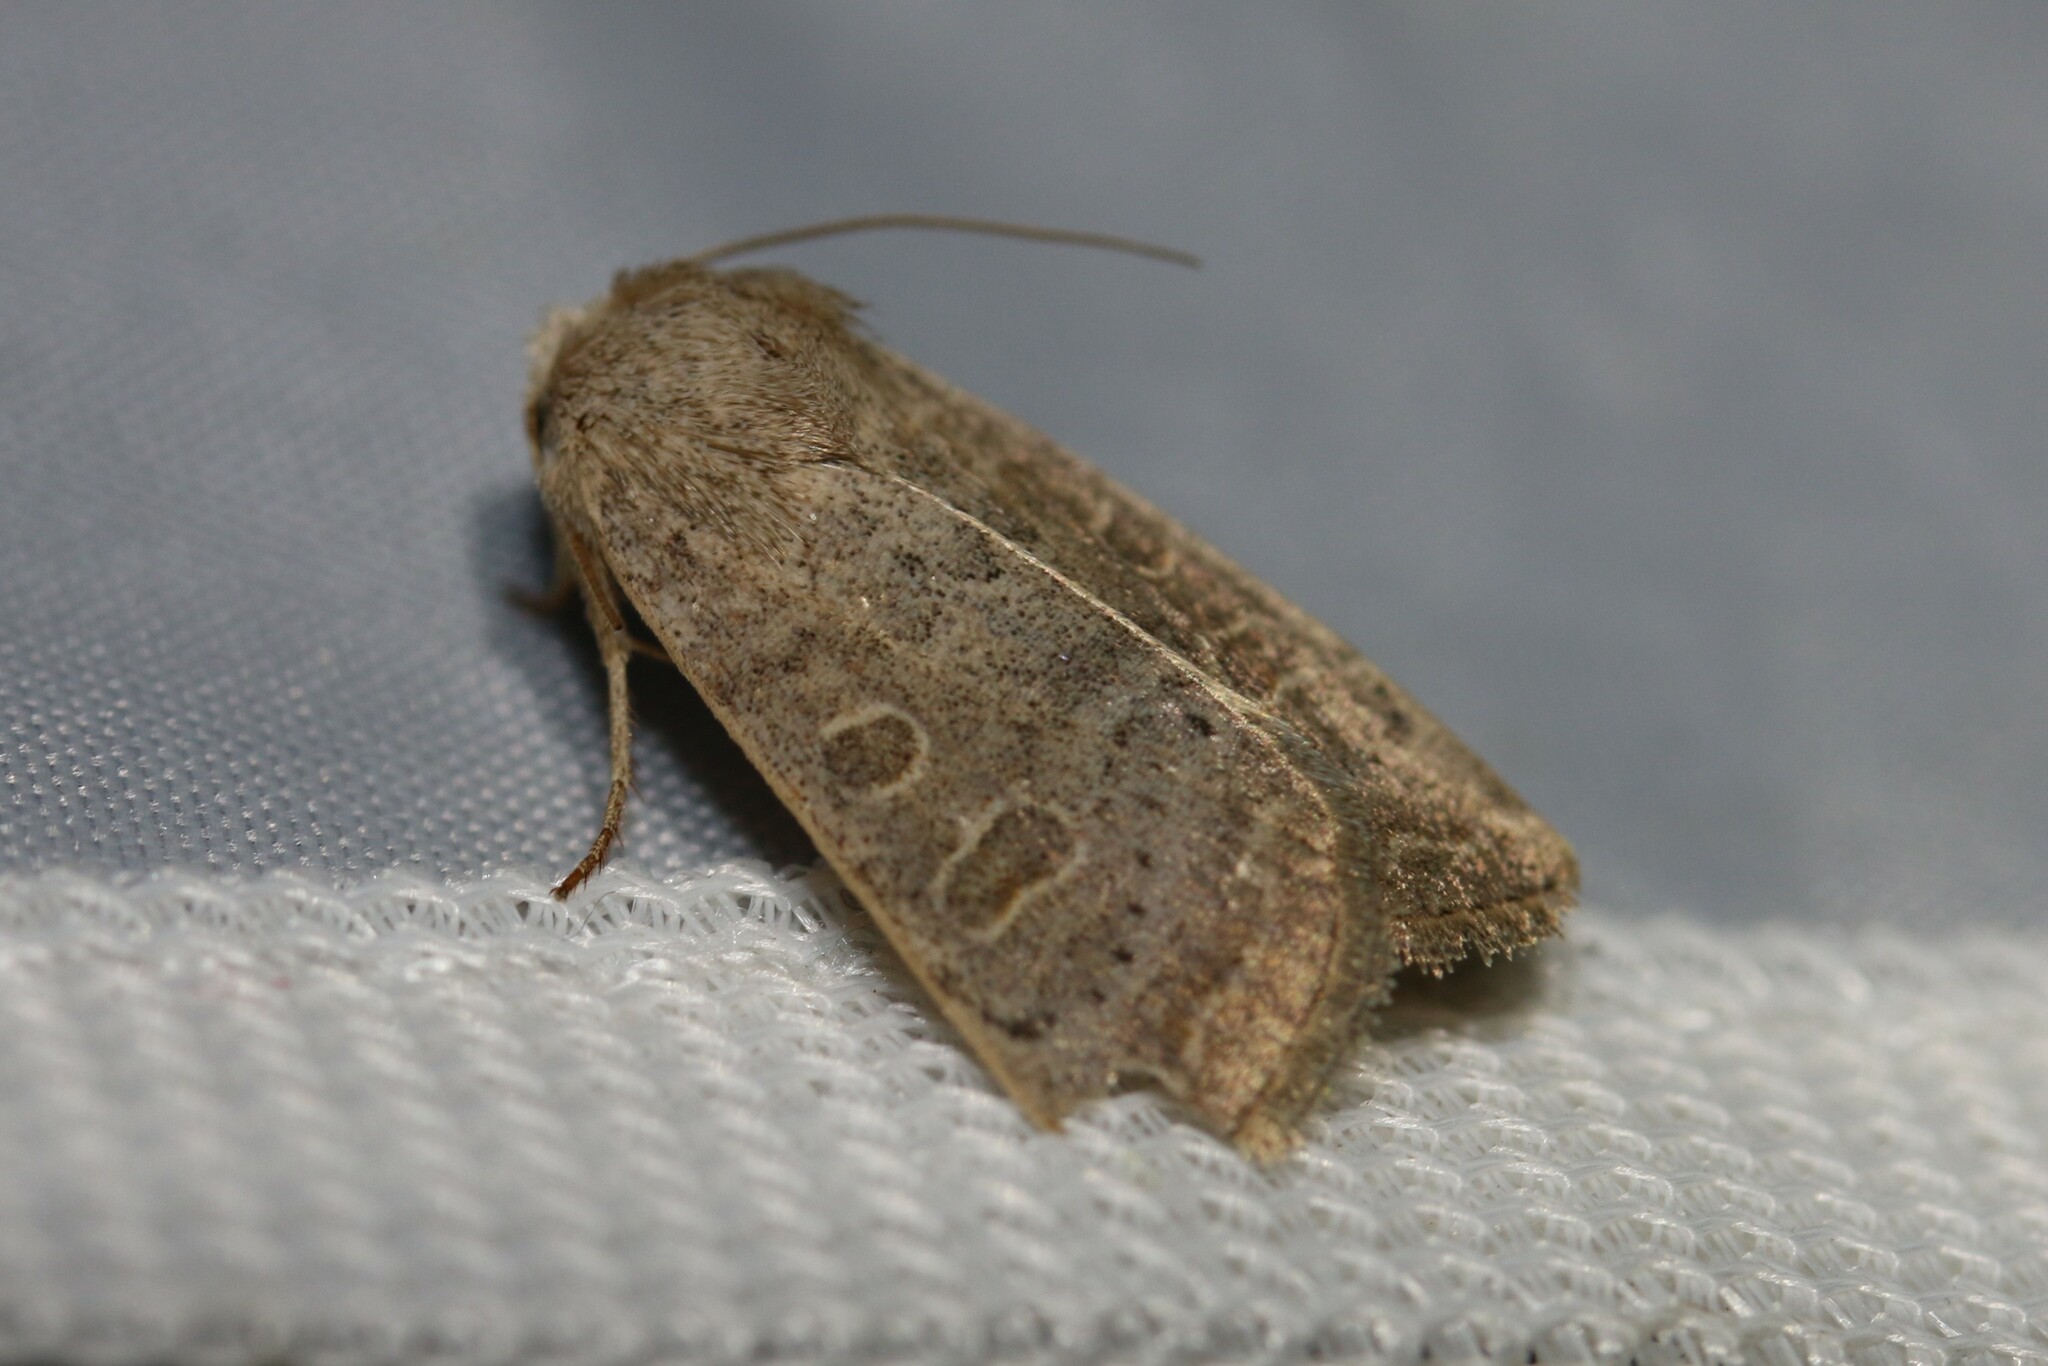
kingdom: Animalia
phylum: Arthropoda
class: Insecta
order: Lepidoptera
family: Noctuidae
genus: Hoplodrina
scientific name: Hoplodrina ambigua
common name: Vine's rustic
